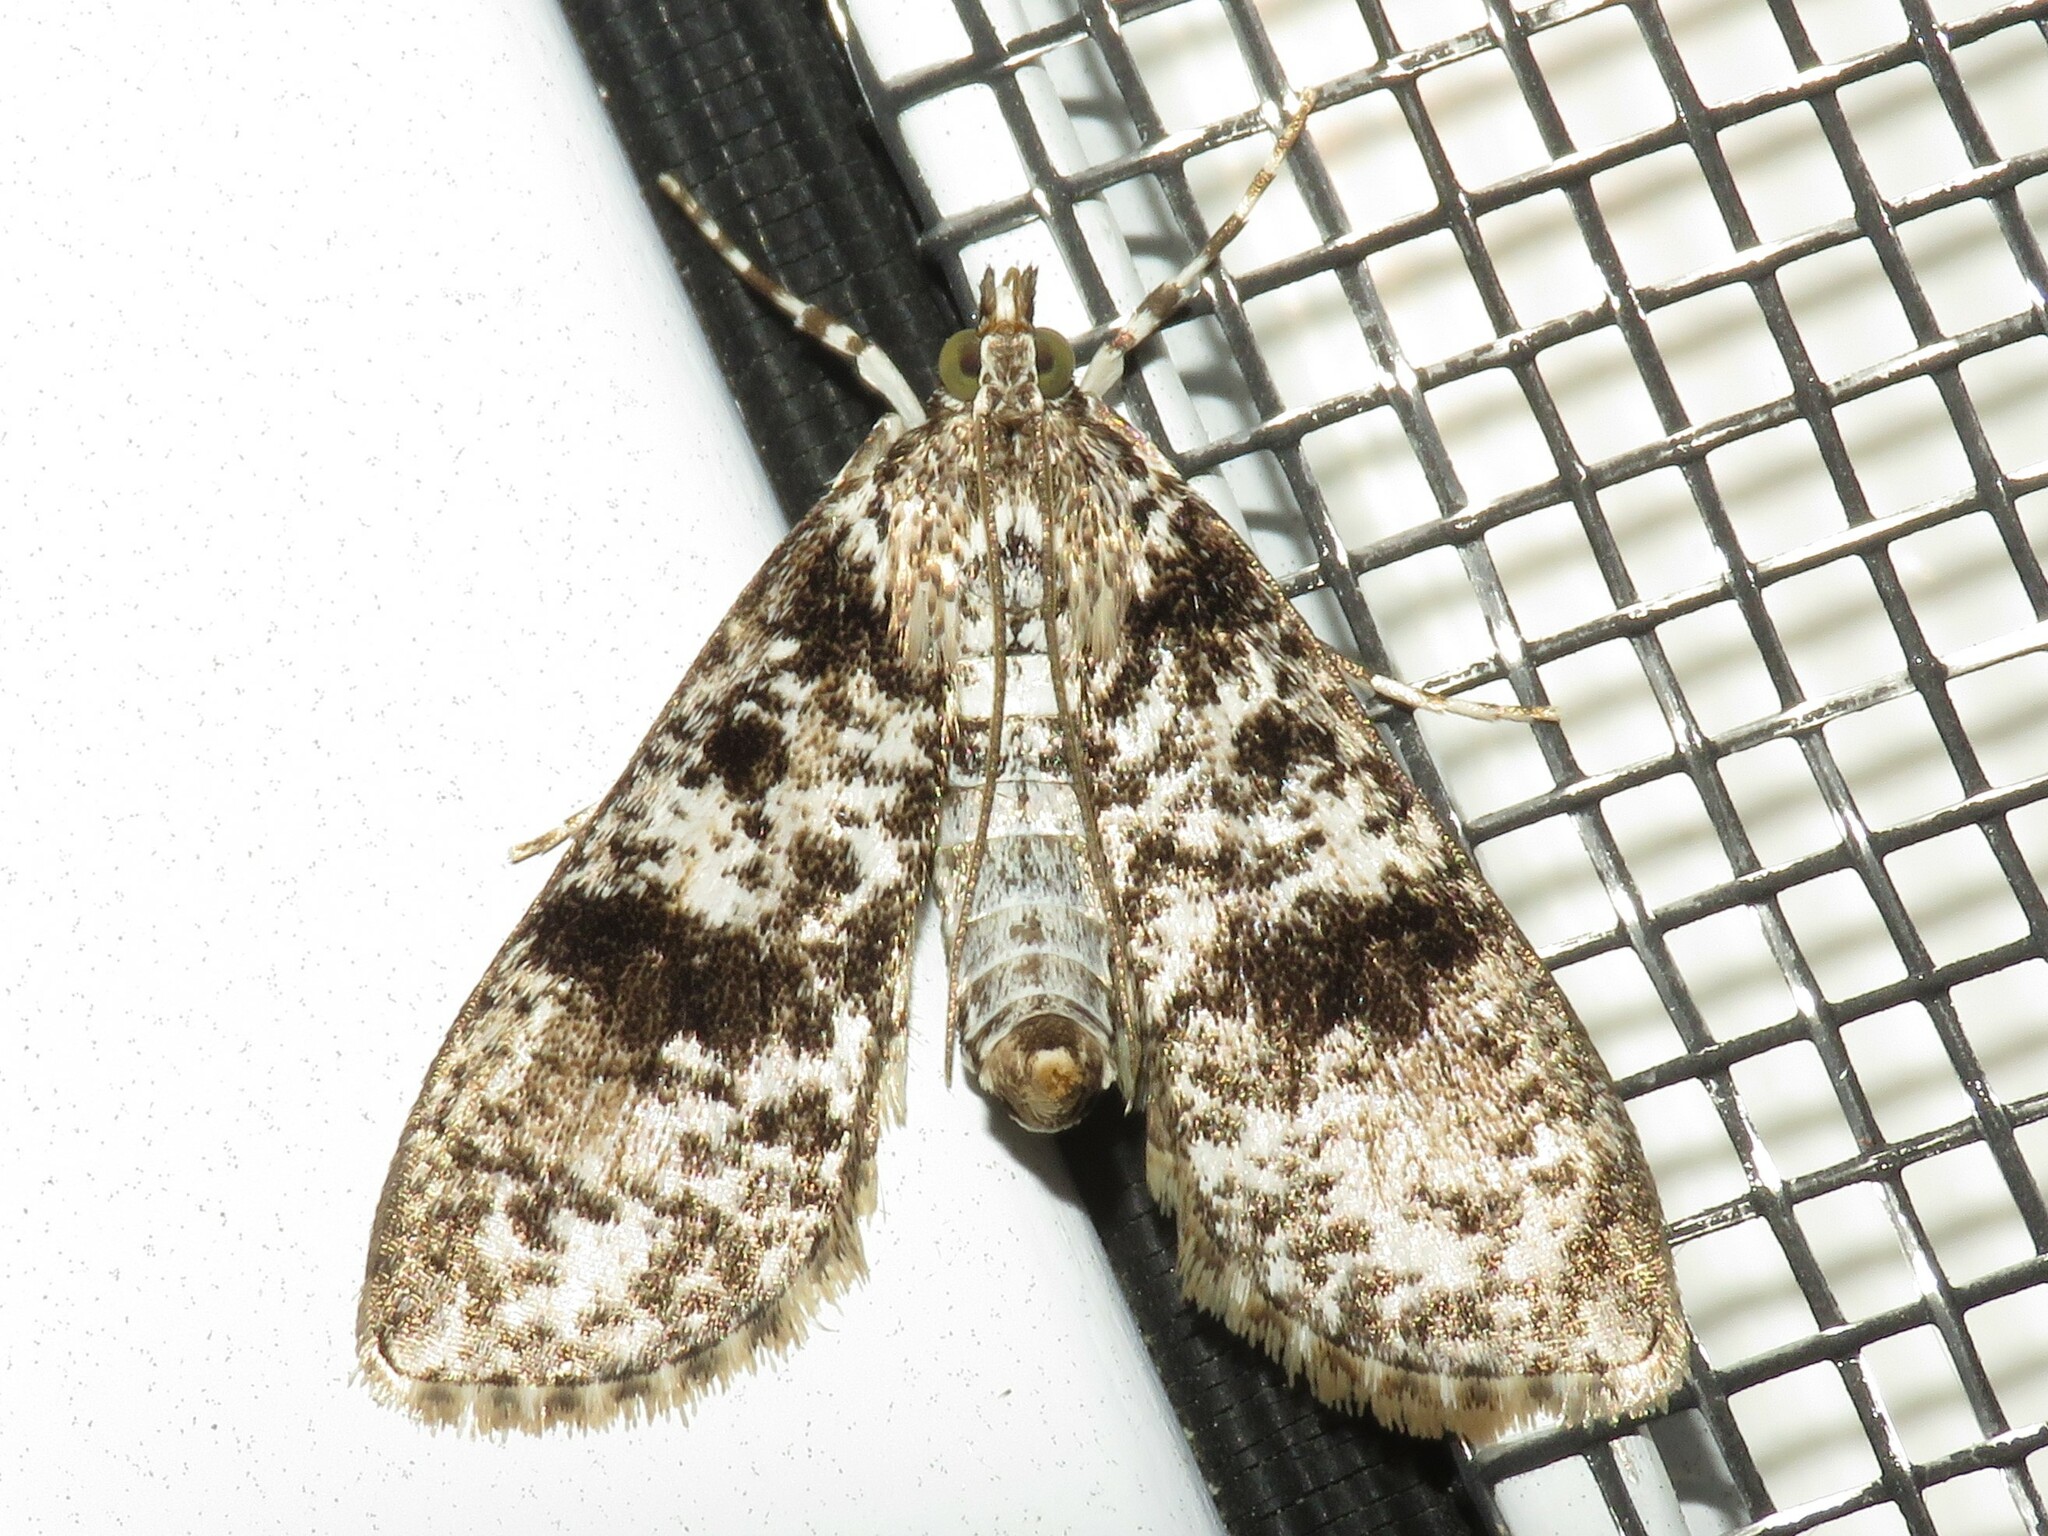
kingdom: Animalia
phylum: Arthropoda
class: Insecta
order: Lepidoptera
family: Crambidae
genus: Palpita
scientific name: Palpita magniferalis
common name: Splendid palpita moth
